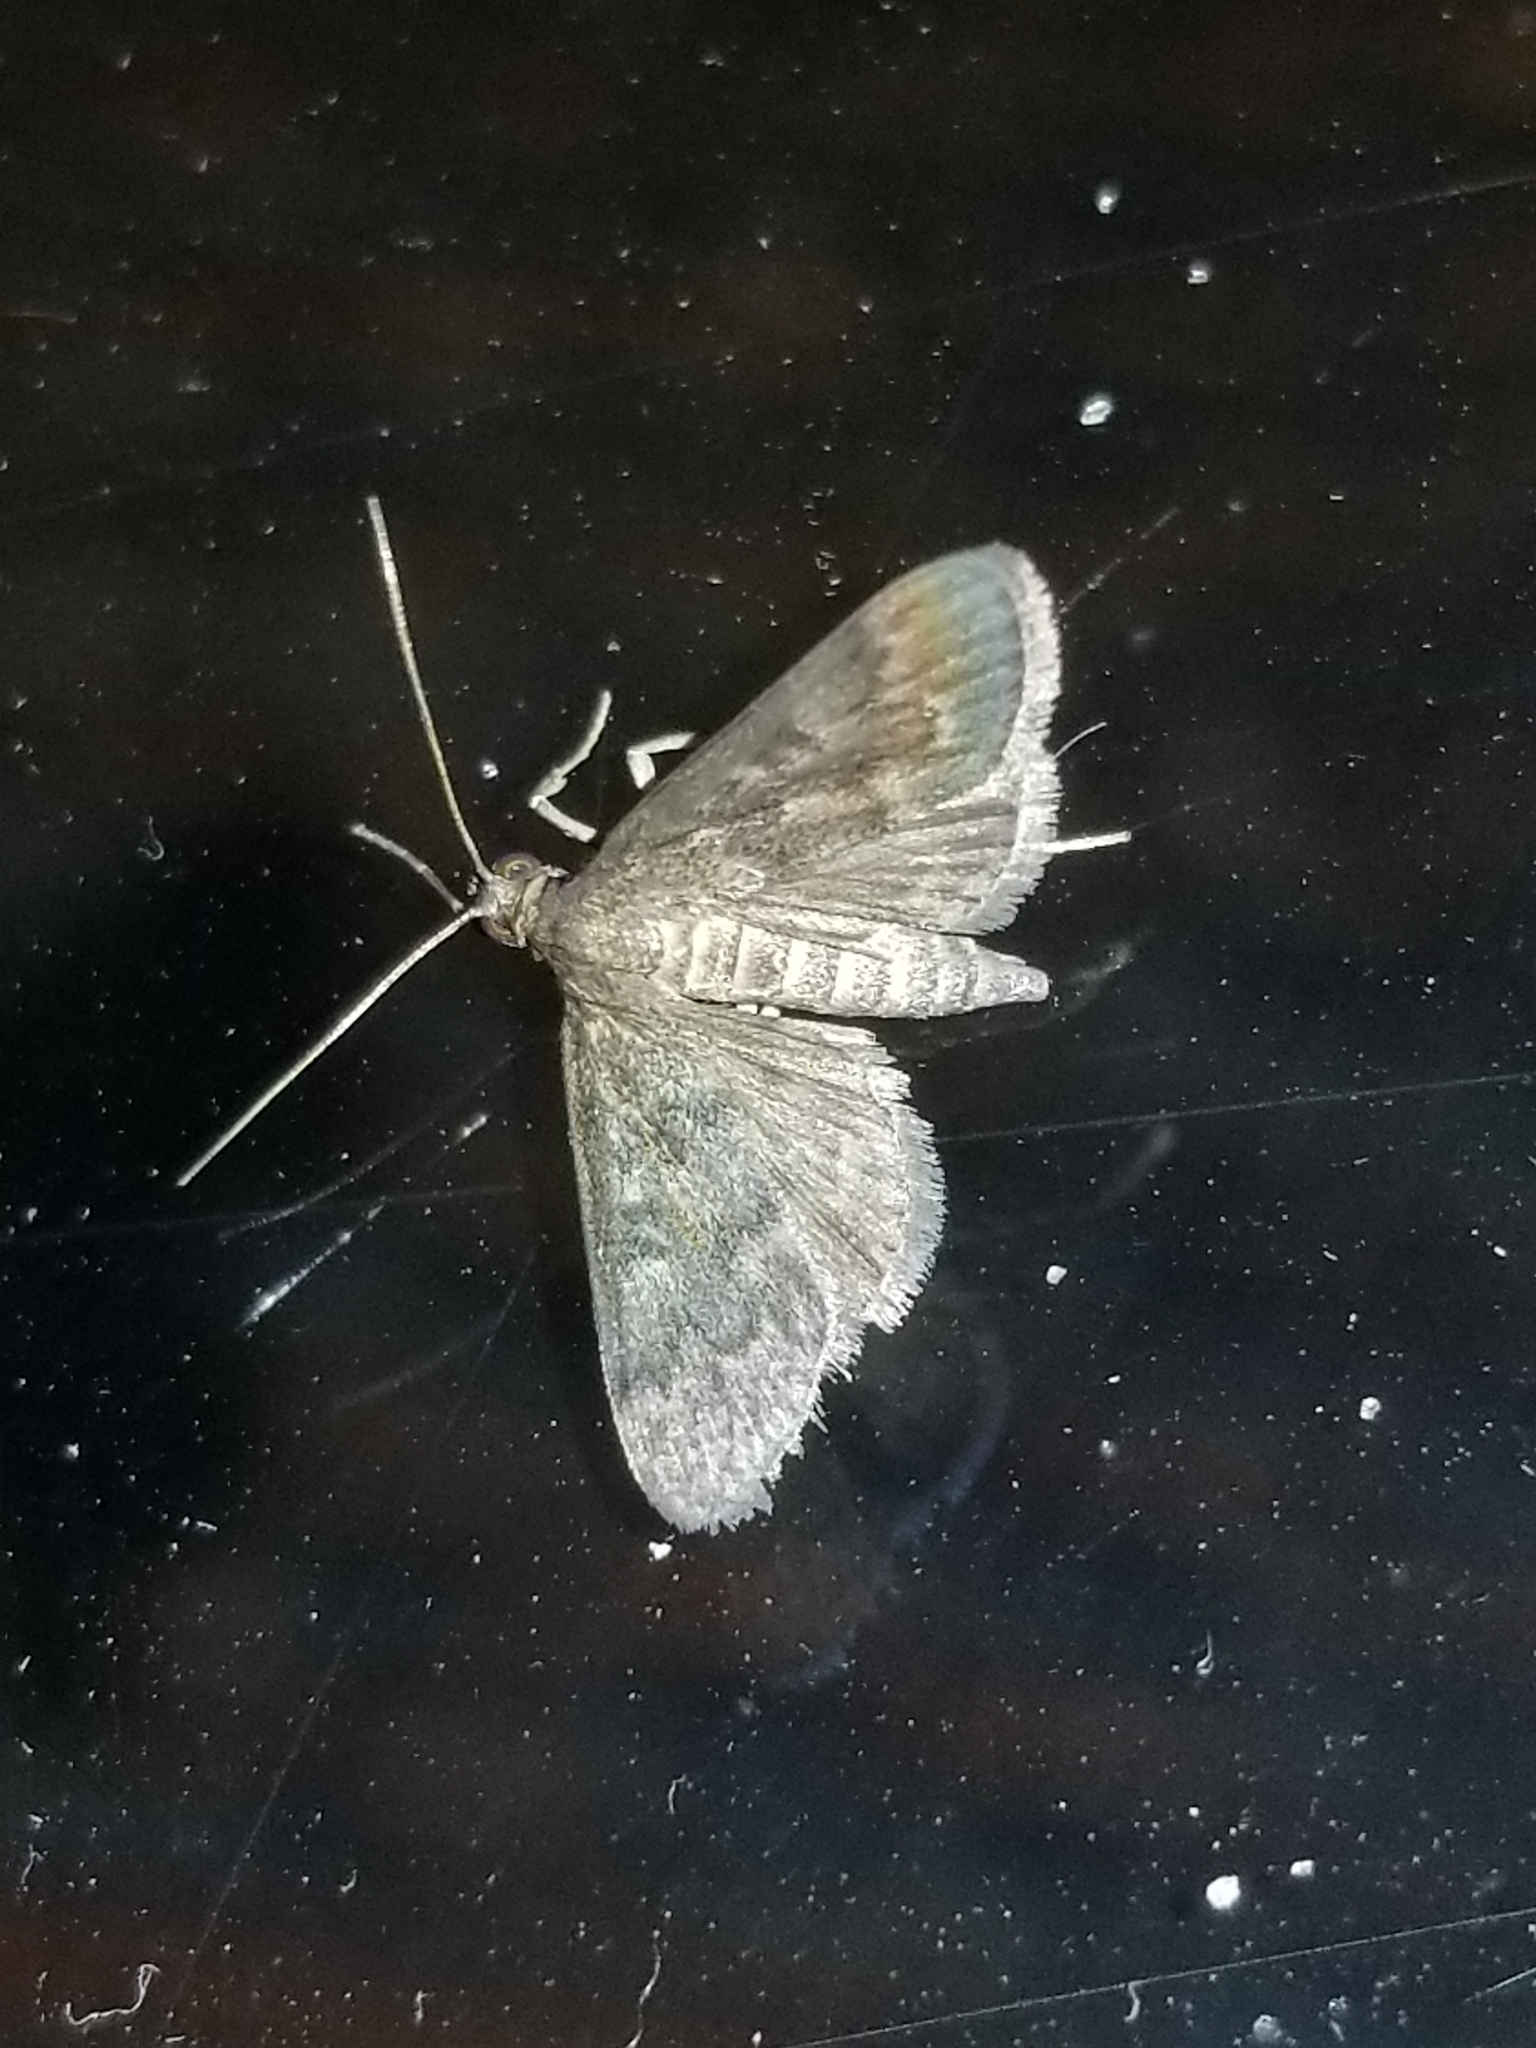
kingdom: Animalia
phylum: Arthropoda
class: Insecta
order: Lepidoptera
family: Crambidae
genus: Piletocera
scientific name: Piletocera bufalis
